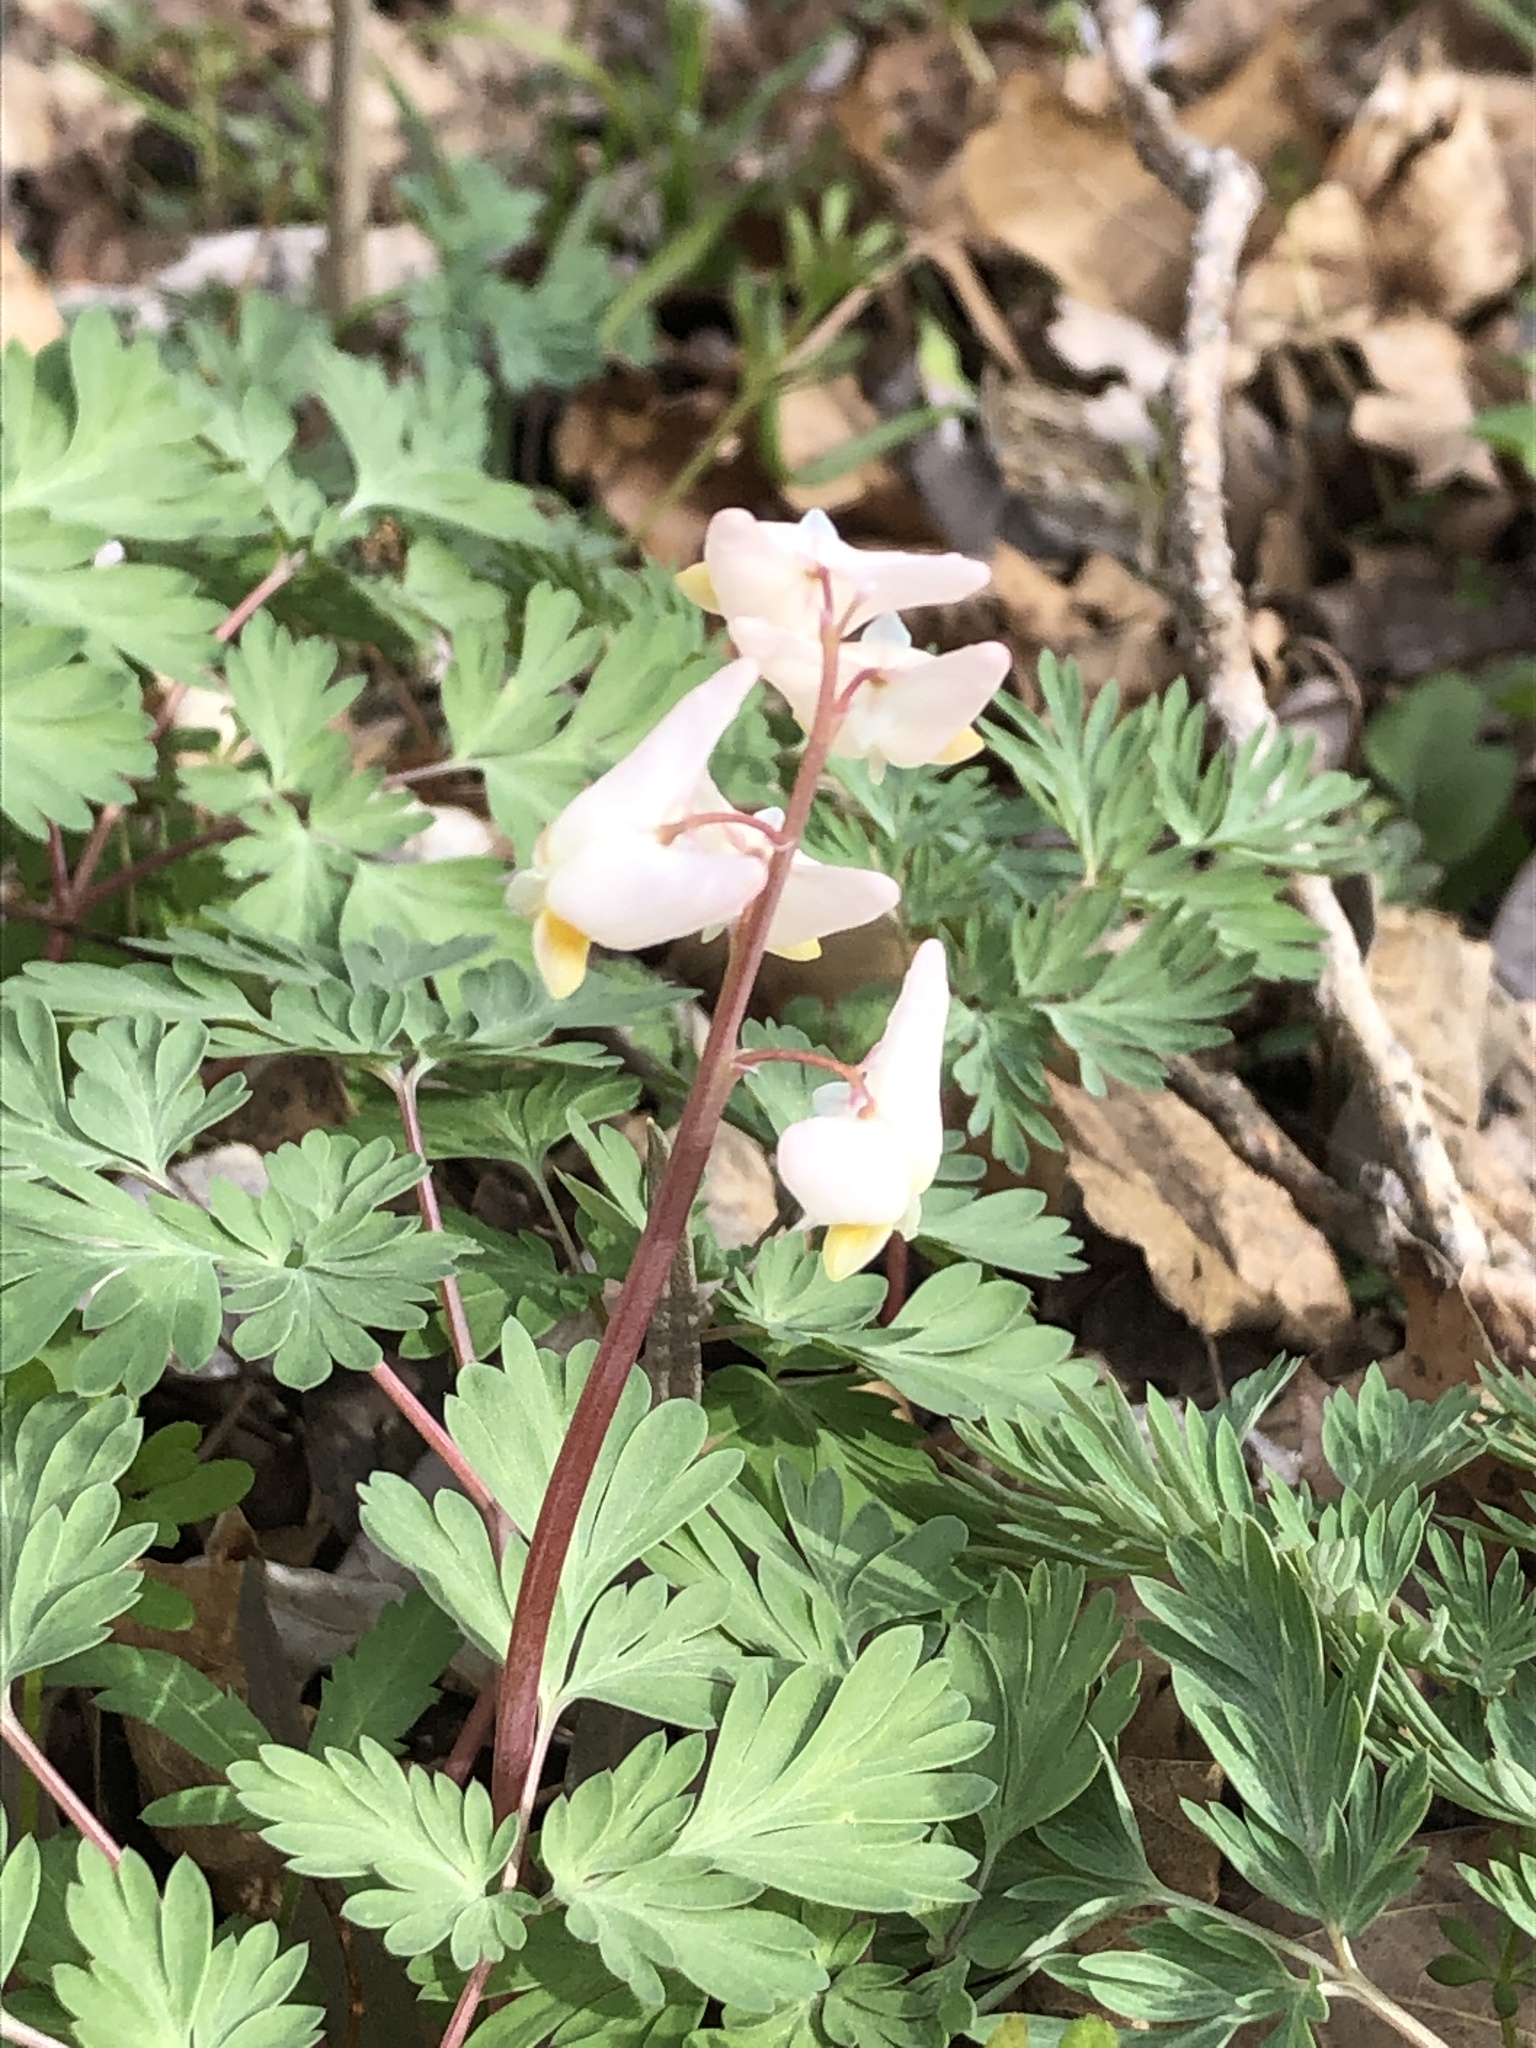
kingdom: Plantae
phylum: Tracheophyta
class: Magnoliopsida
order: Ranunculales
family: Papaveraceae
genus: Dicentra
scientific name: Dicentra cucullaria
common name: Dutchman's breeches
